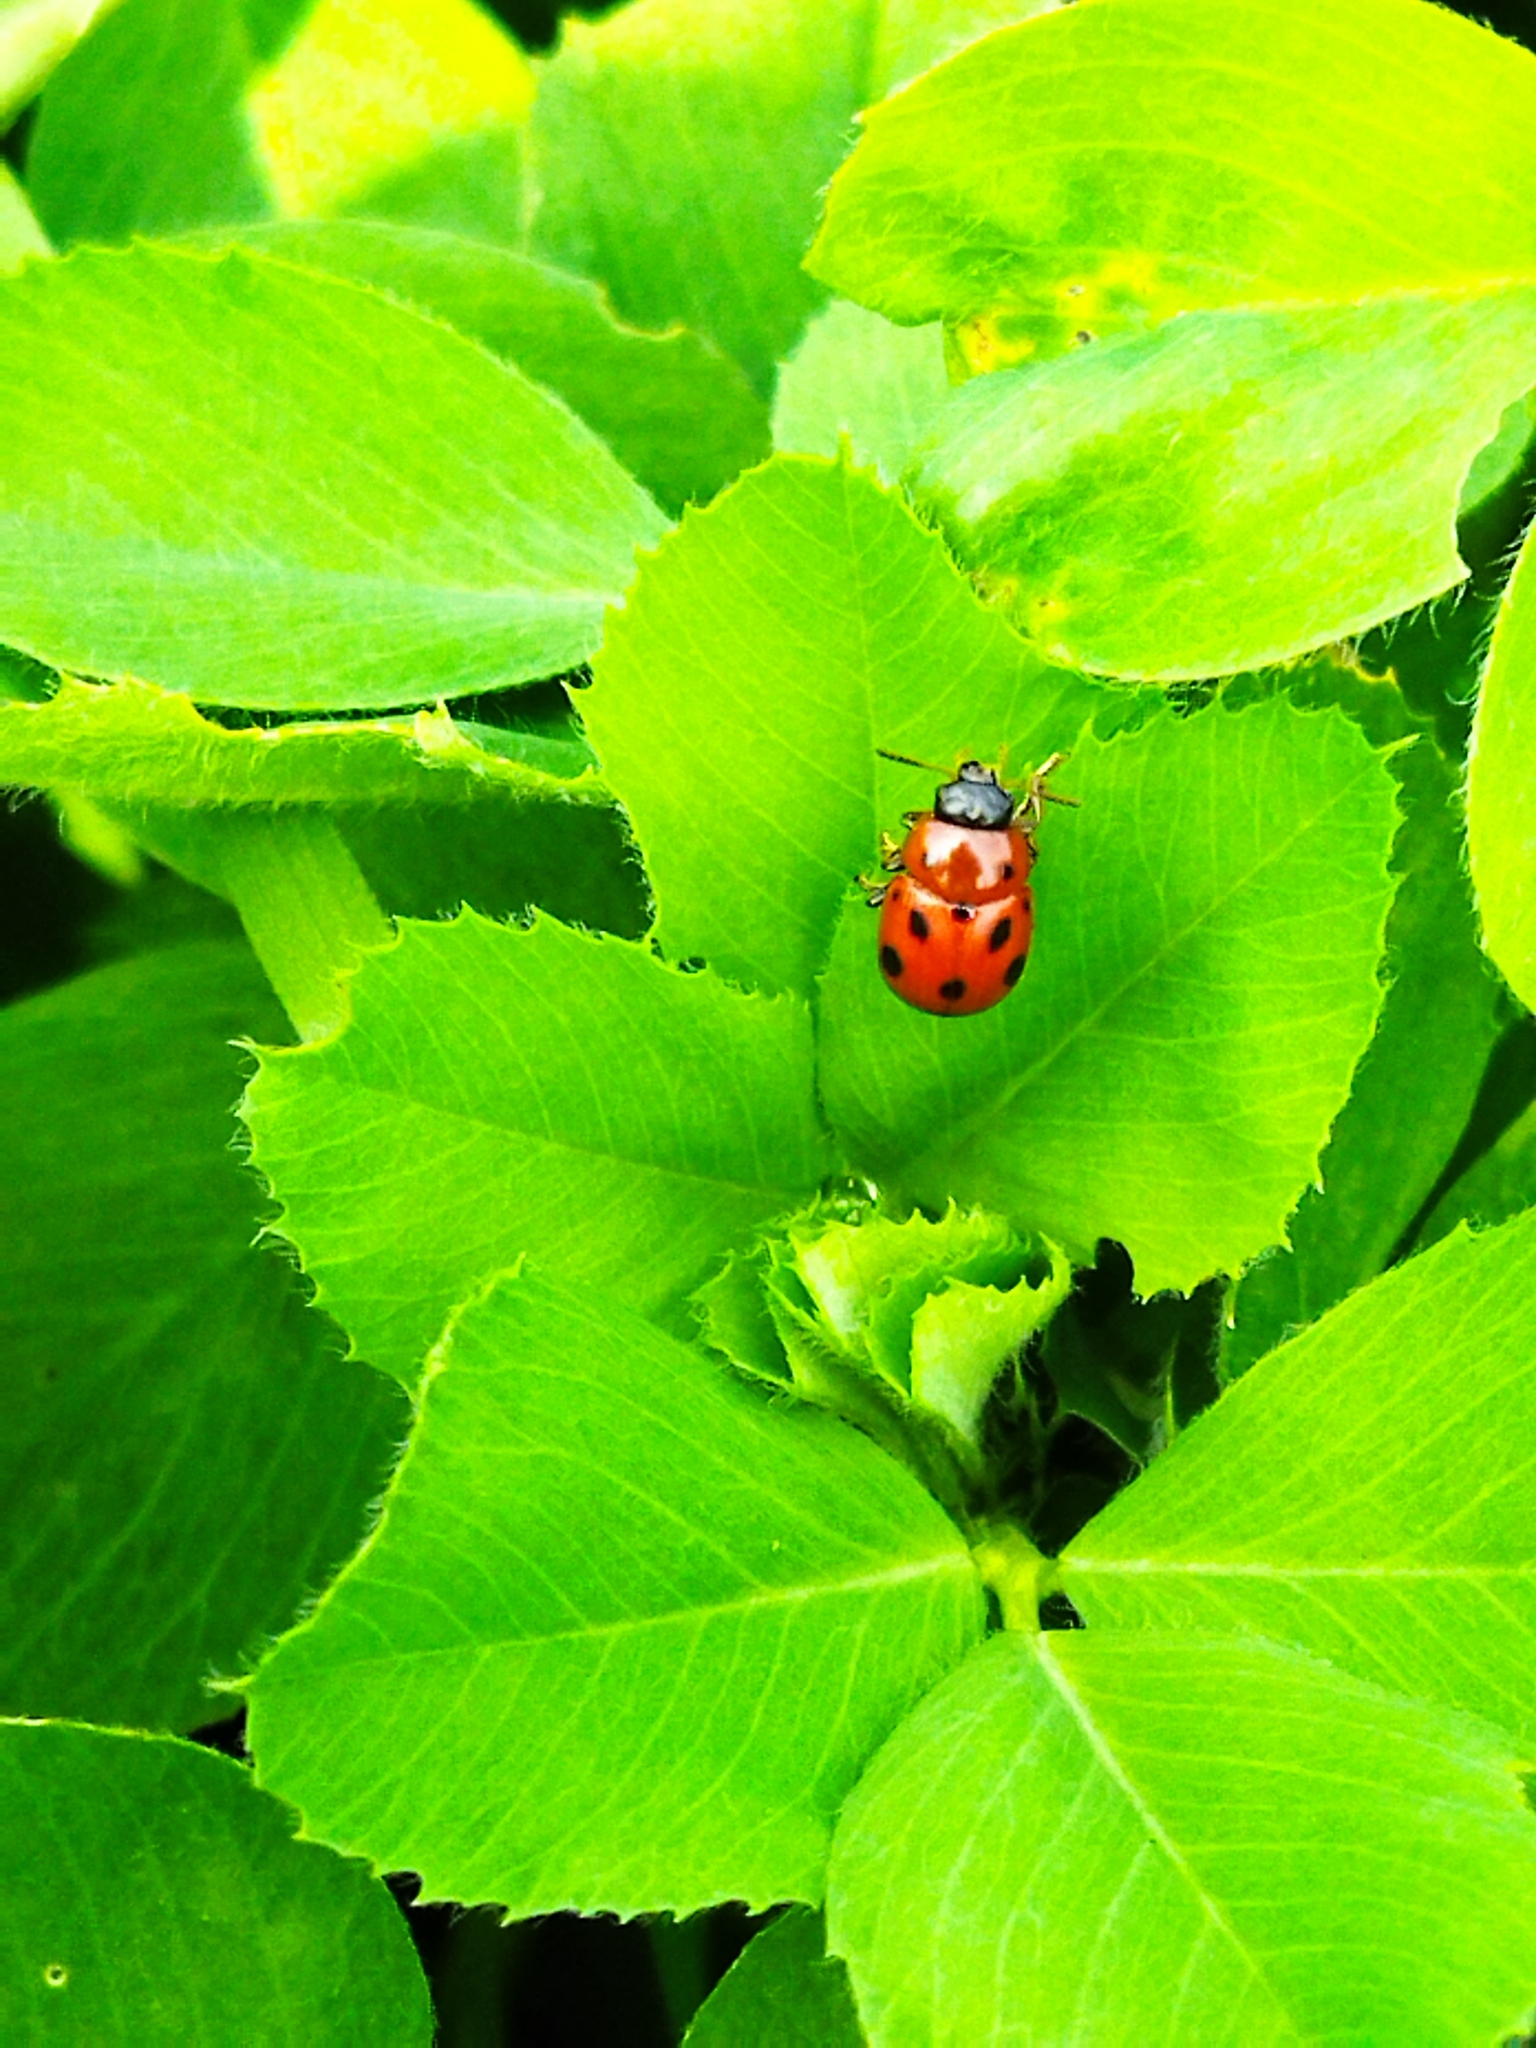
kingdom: Animalia
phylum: Arthropoda
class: Insecta
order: Coleoptera
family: Chrysomelidae
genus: Gonioctena
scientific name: Gonioctena fornicata
